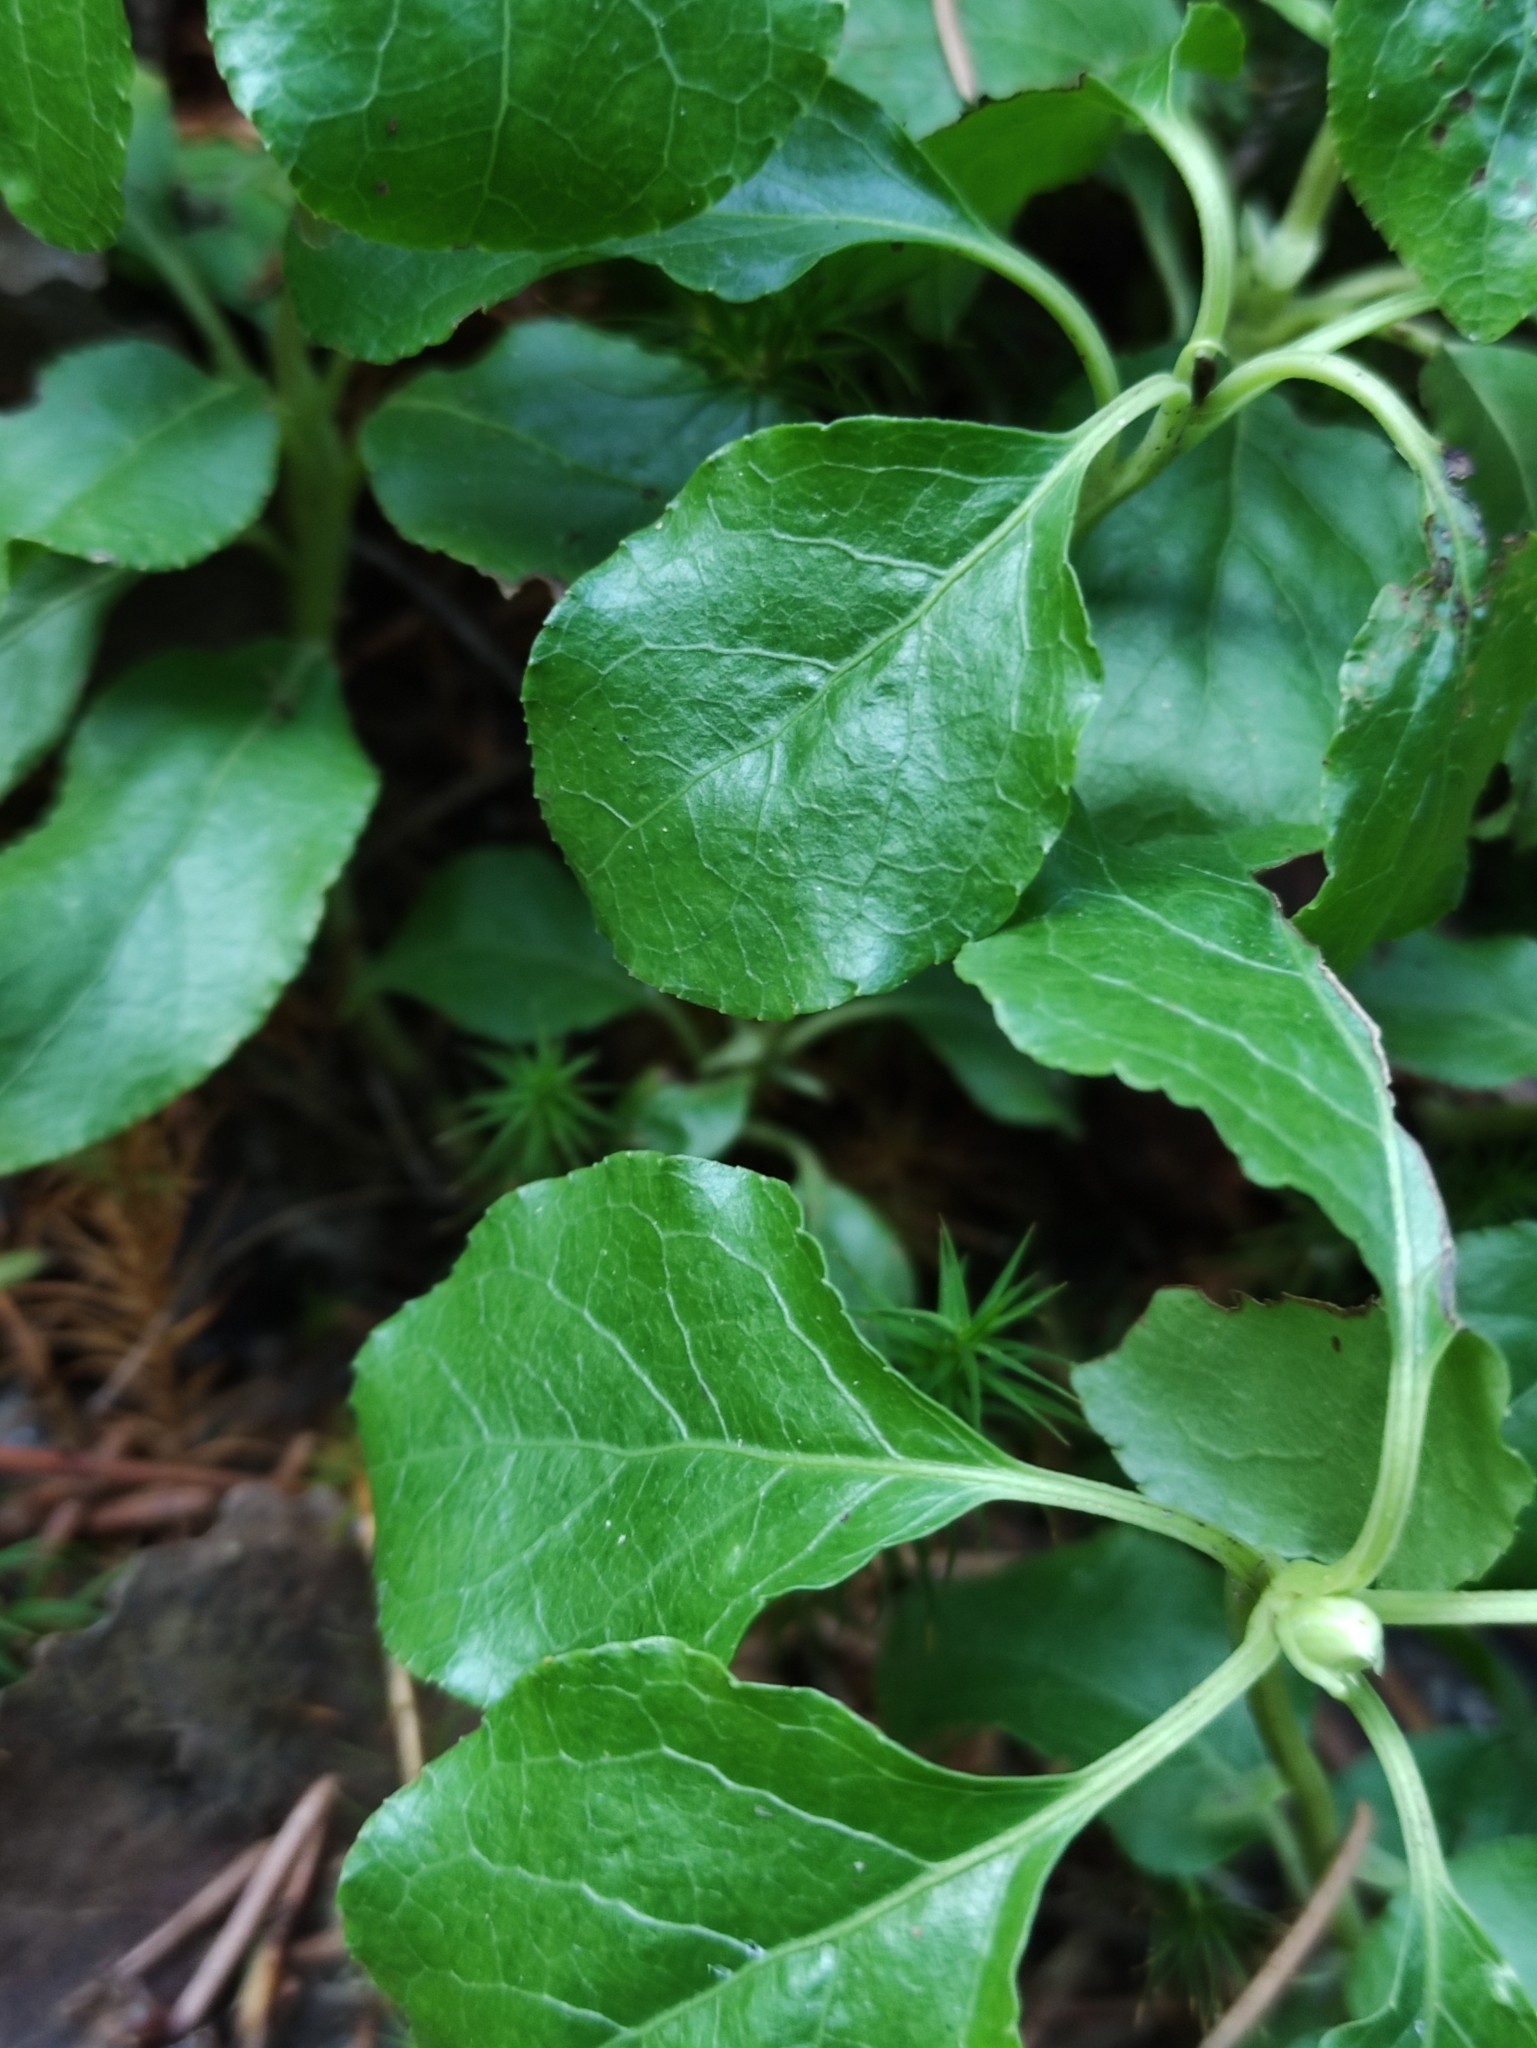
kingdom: Plantae
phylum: Tracheophyta
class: Magnoliopsida
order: Ericales
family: Ericaceae
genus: Orthilia
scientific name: Orthilia secunda
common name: One-sided orthilia
